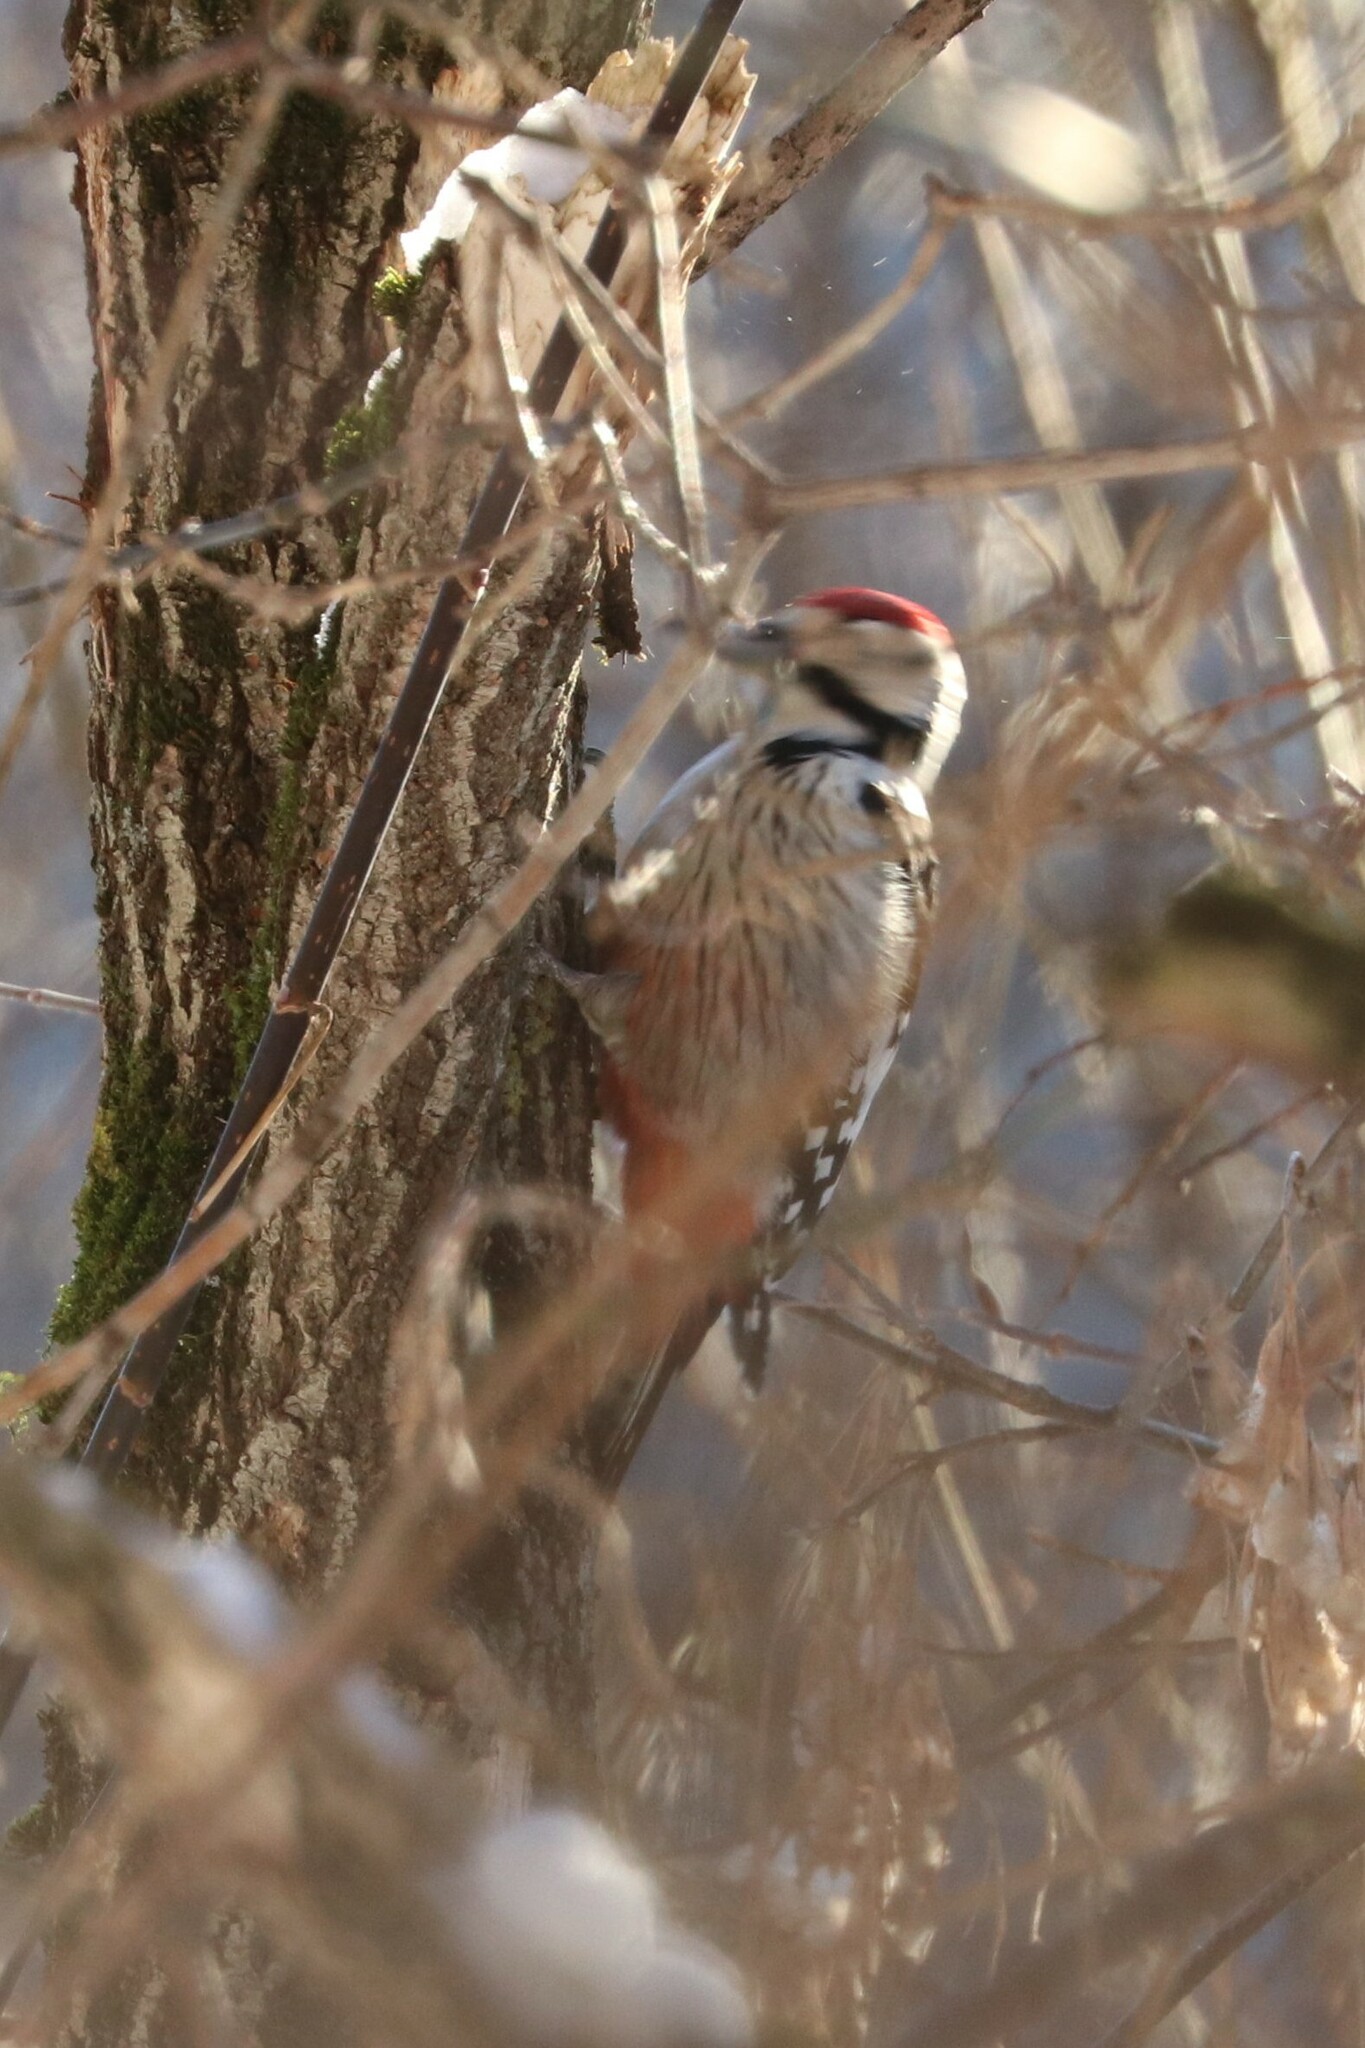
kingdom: Animalia
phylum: Chordata
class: Aves
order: Piciformes
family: Picidae
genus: Dendrocopos
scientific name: Dendrocopos leucotos
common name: White-backed woodpecker
